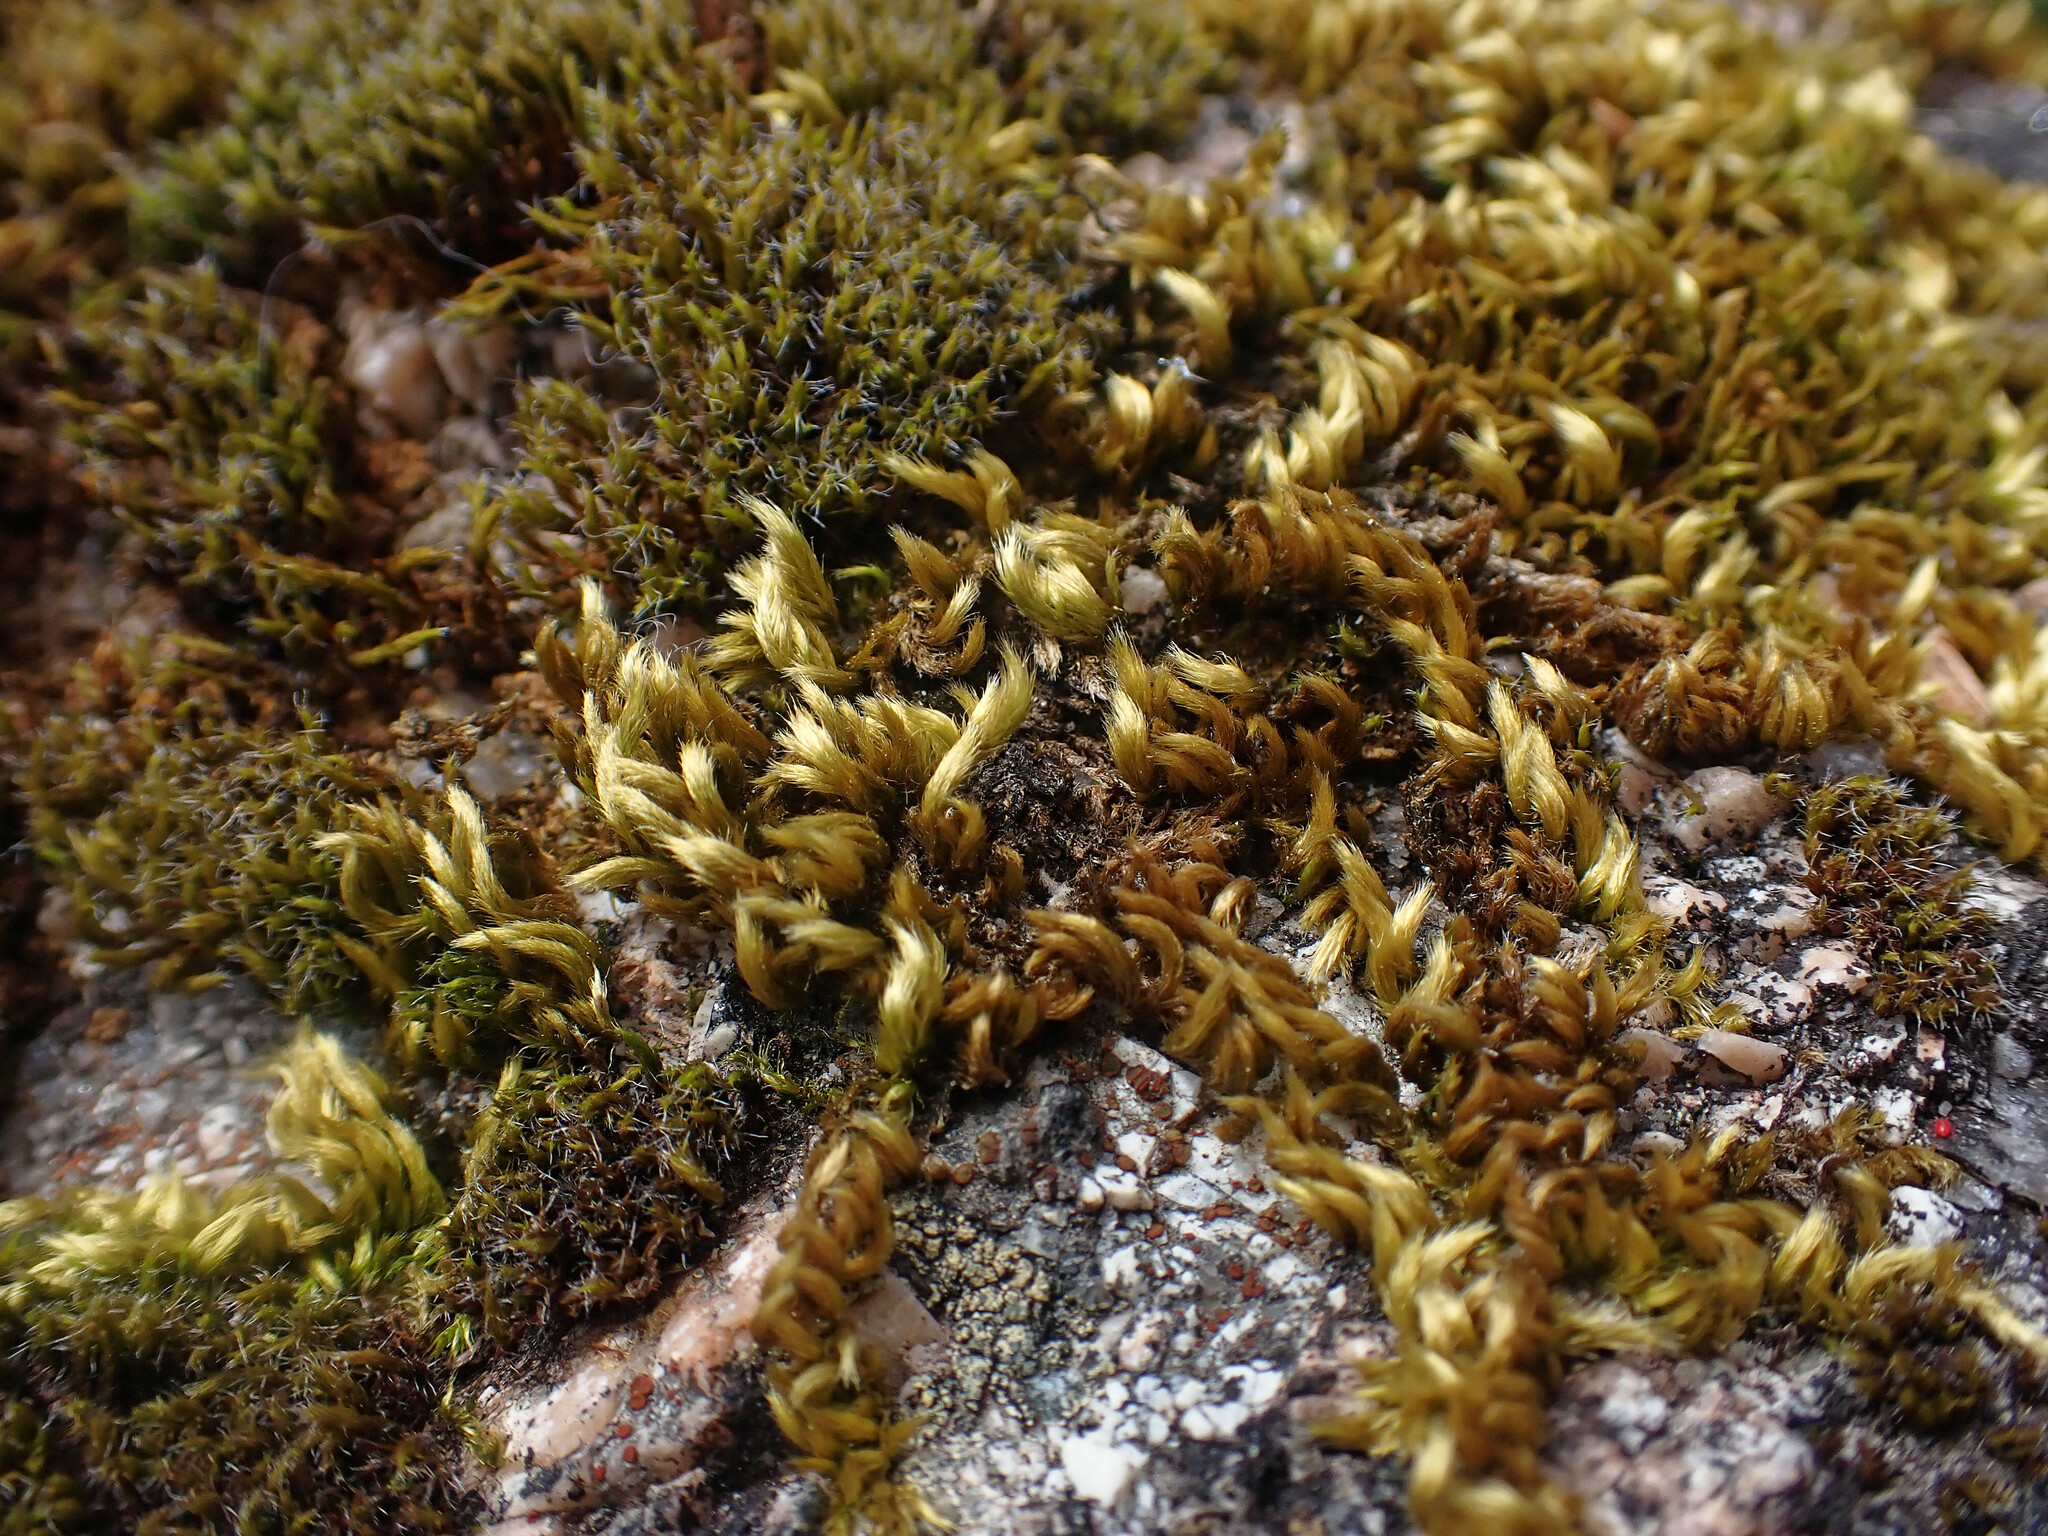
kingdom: Plantae
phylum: Bryophyta
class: Bryopsida
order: Hypnales
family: Brachytheciaceae
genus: Homalothecium
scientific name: Homalothecium sericeum
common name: Silky wall feather-moss
